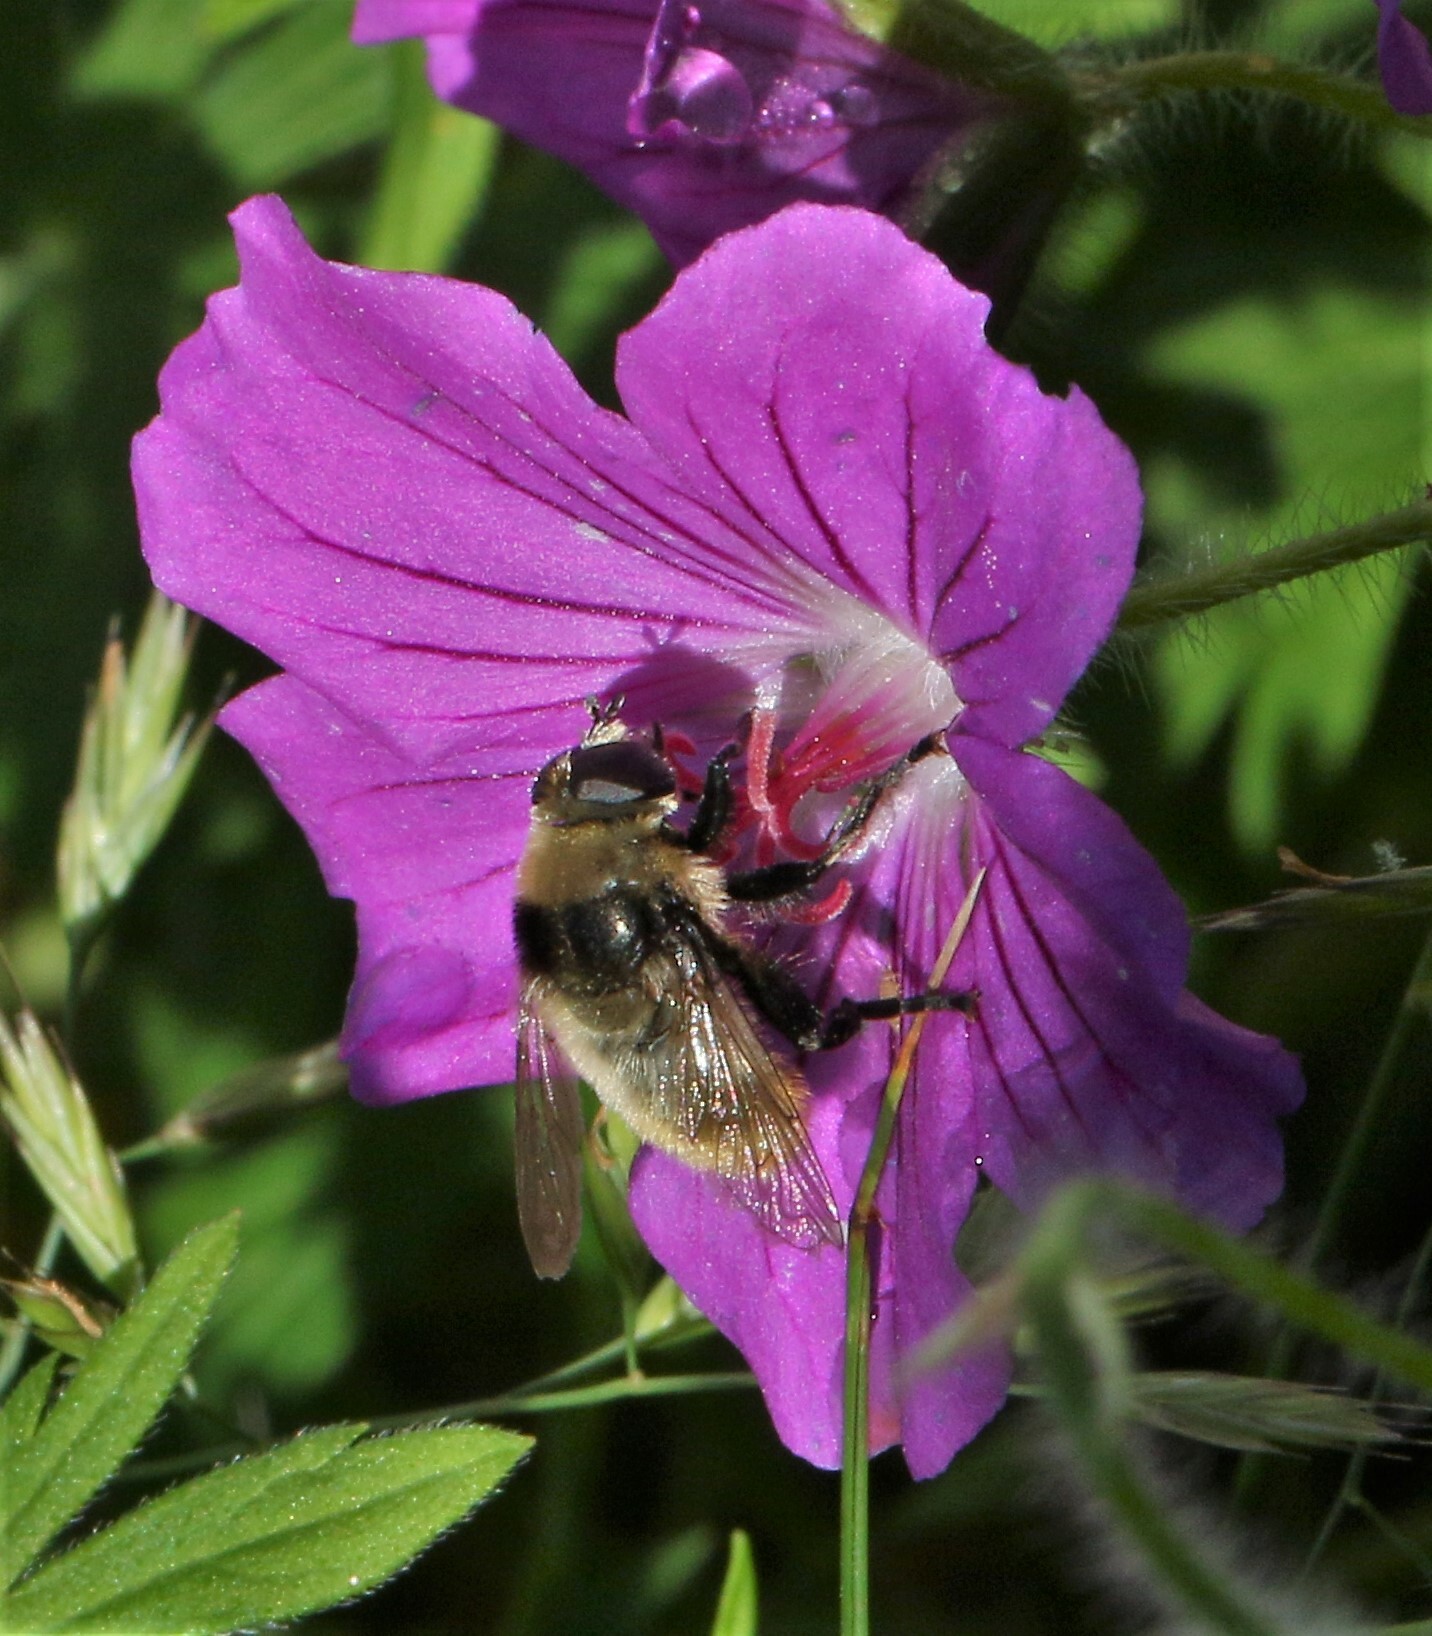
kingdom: Animalia
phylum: Arthropoda
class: Insecta
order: Diptera
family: Syrphidae
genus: Merodon
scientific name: Merodon equestris
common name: Greater bulb-fly
